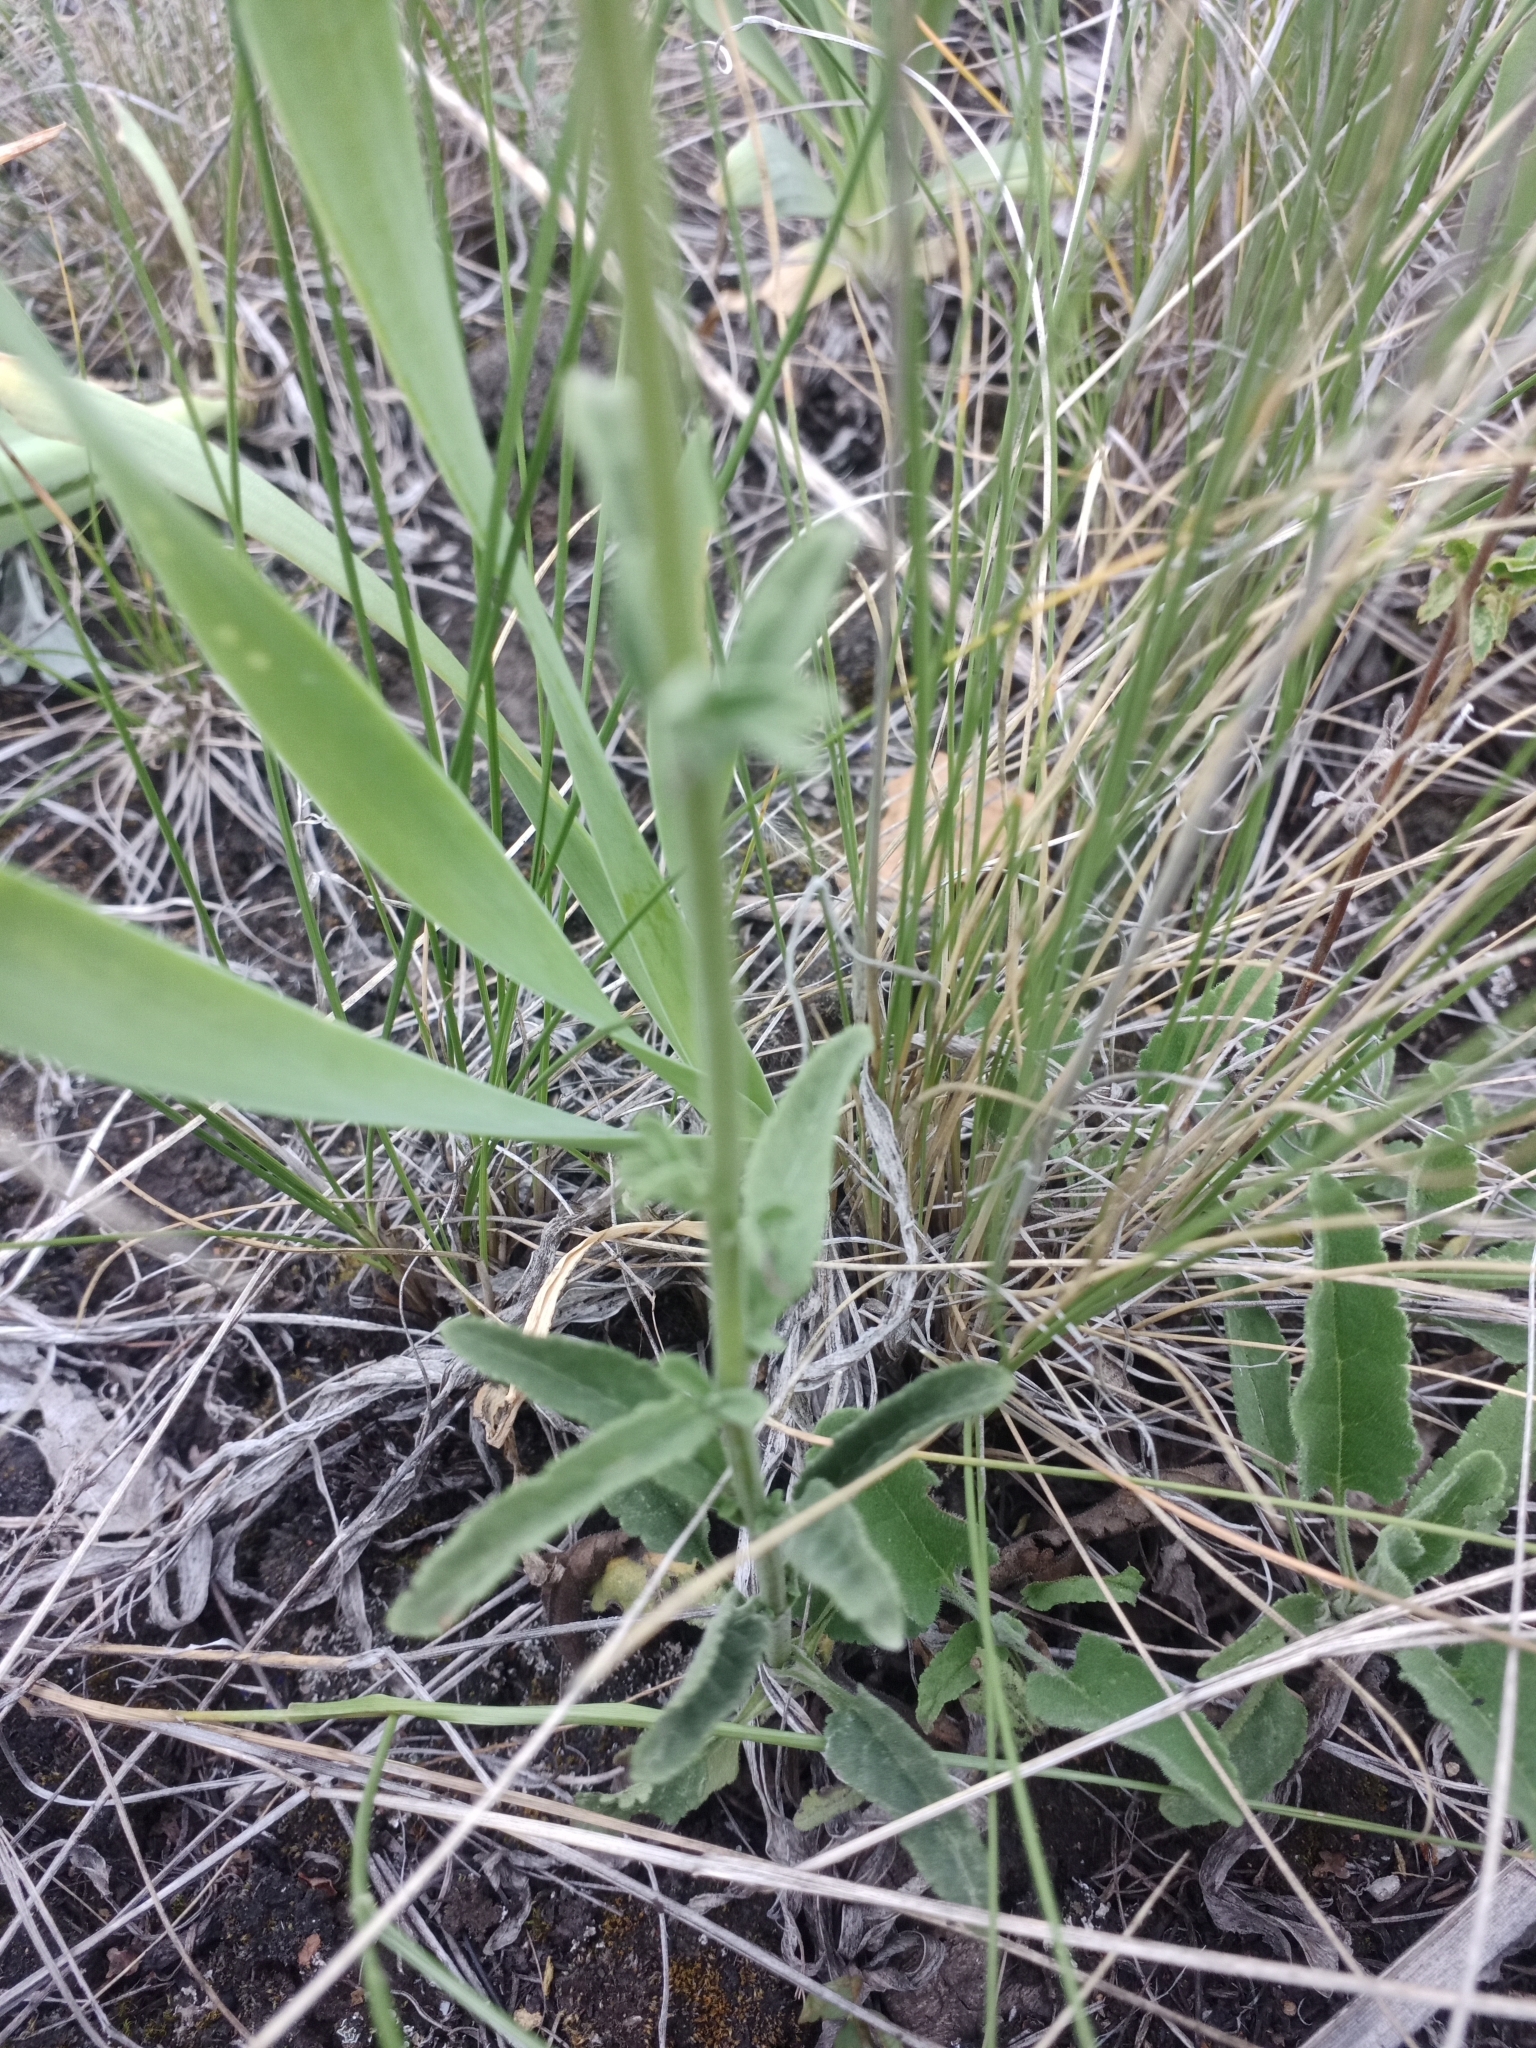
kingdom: Plantae
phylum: Tracheophyta
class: Magnoliopsida
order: Lamiales
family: Plantaginaceae
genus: Veronica
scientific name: Veronica spicata
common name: Spiked speedwell
